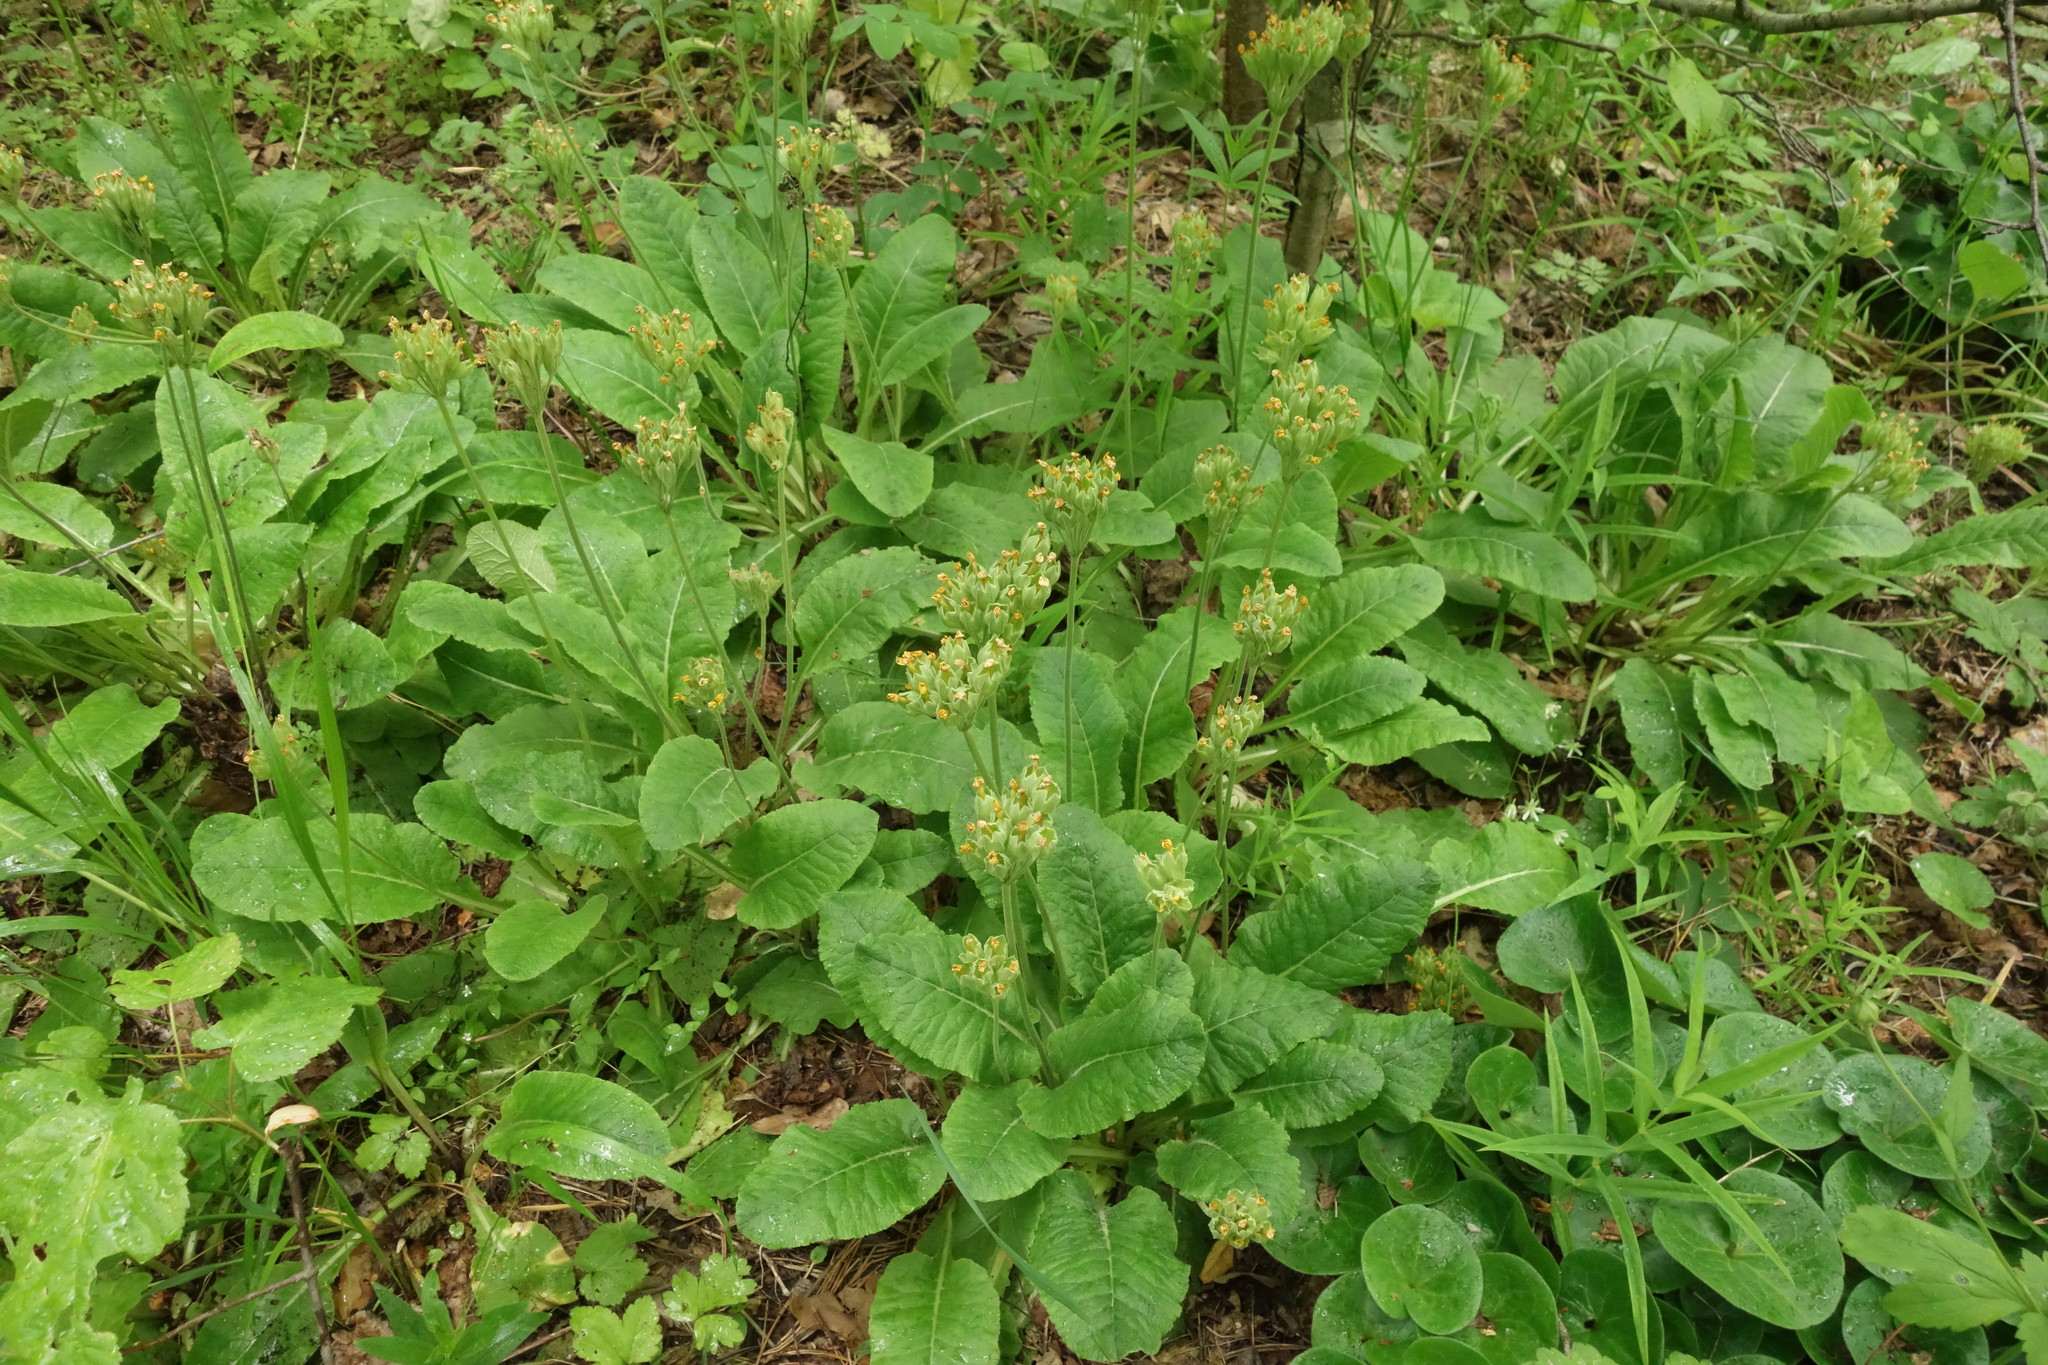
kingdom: Plantae
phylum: Tracheophyta
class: Magnoliopsida
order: Ericales
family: Primulaceae
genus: Primula
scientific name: Primula veris
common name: Cowslip
